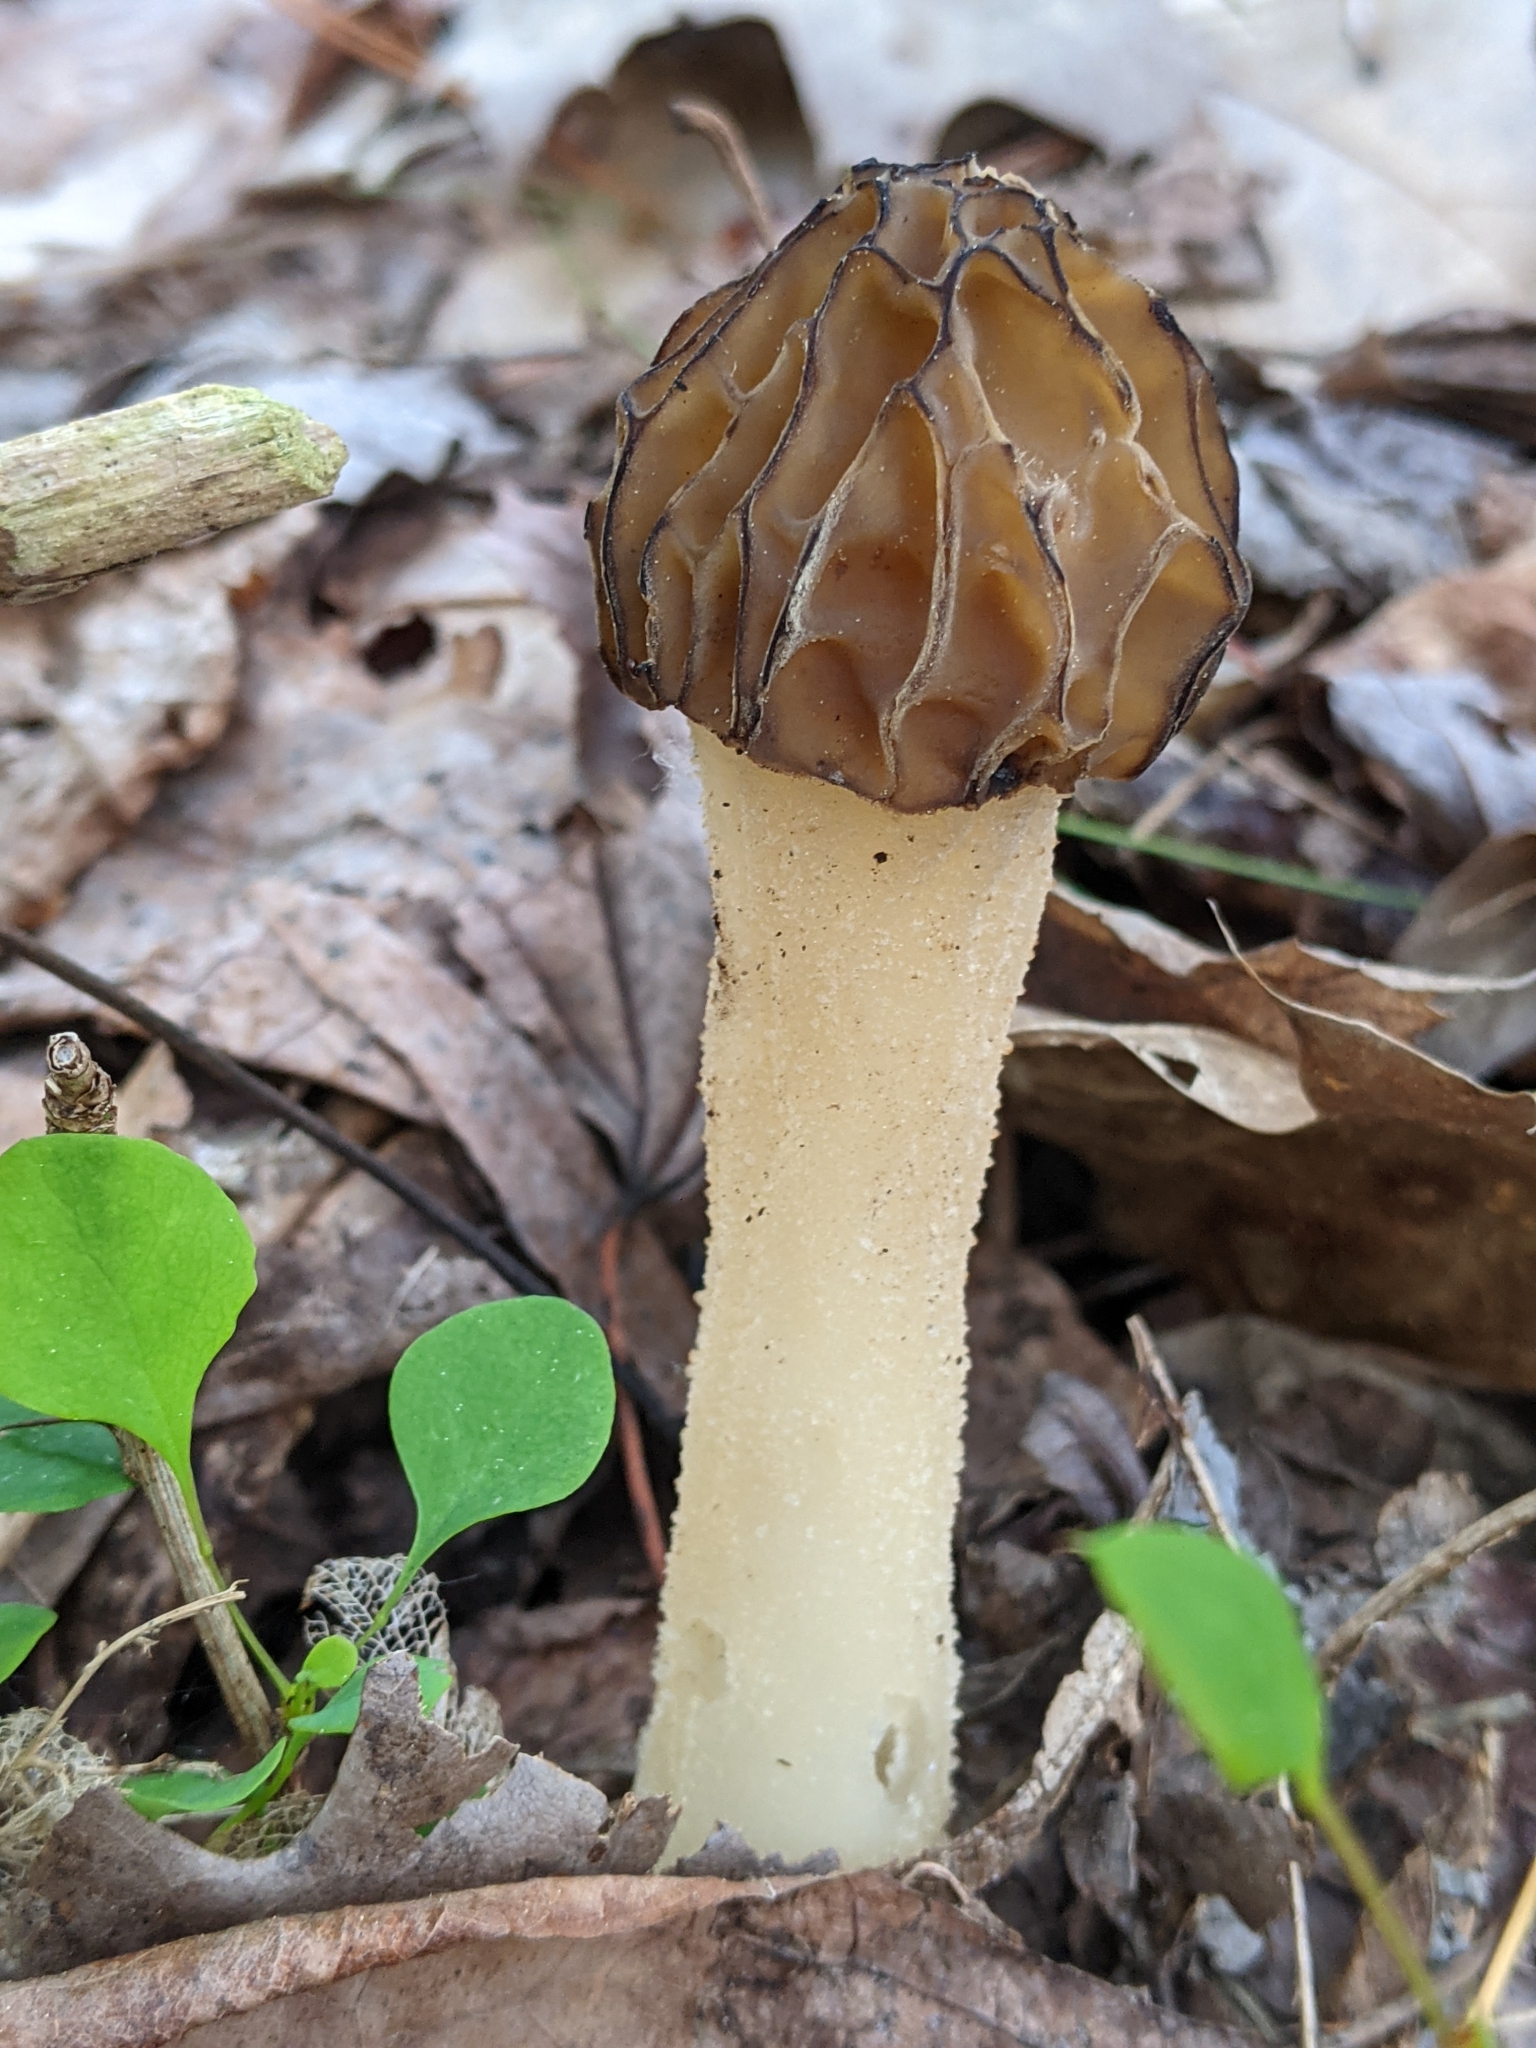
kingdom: Fungi
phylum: Ascomycota
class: Pezizomycetes
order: Pezizales
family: Morchellaceae
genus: Morchella
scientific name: Morchella punctipes
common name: Half-free morel
